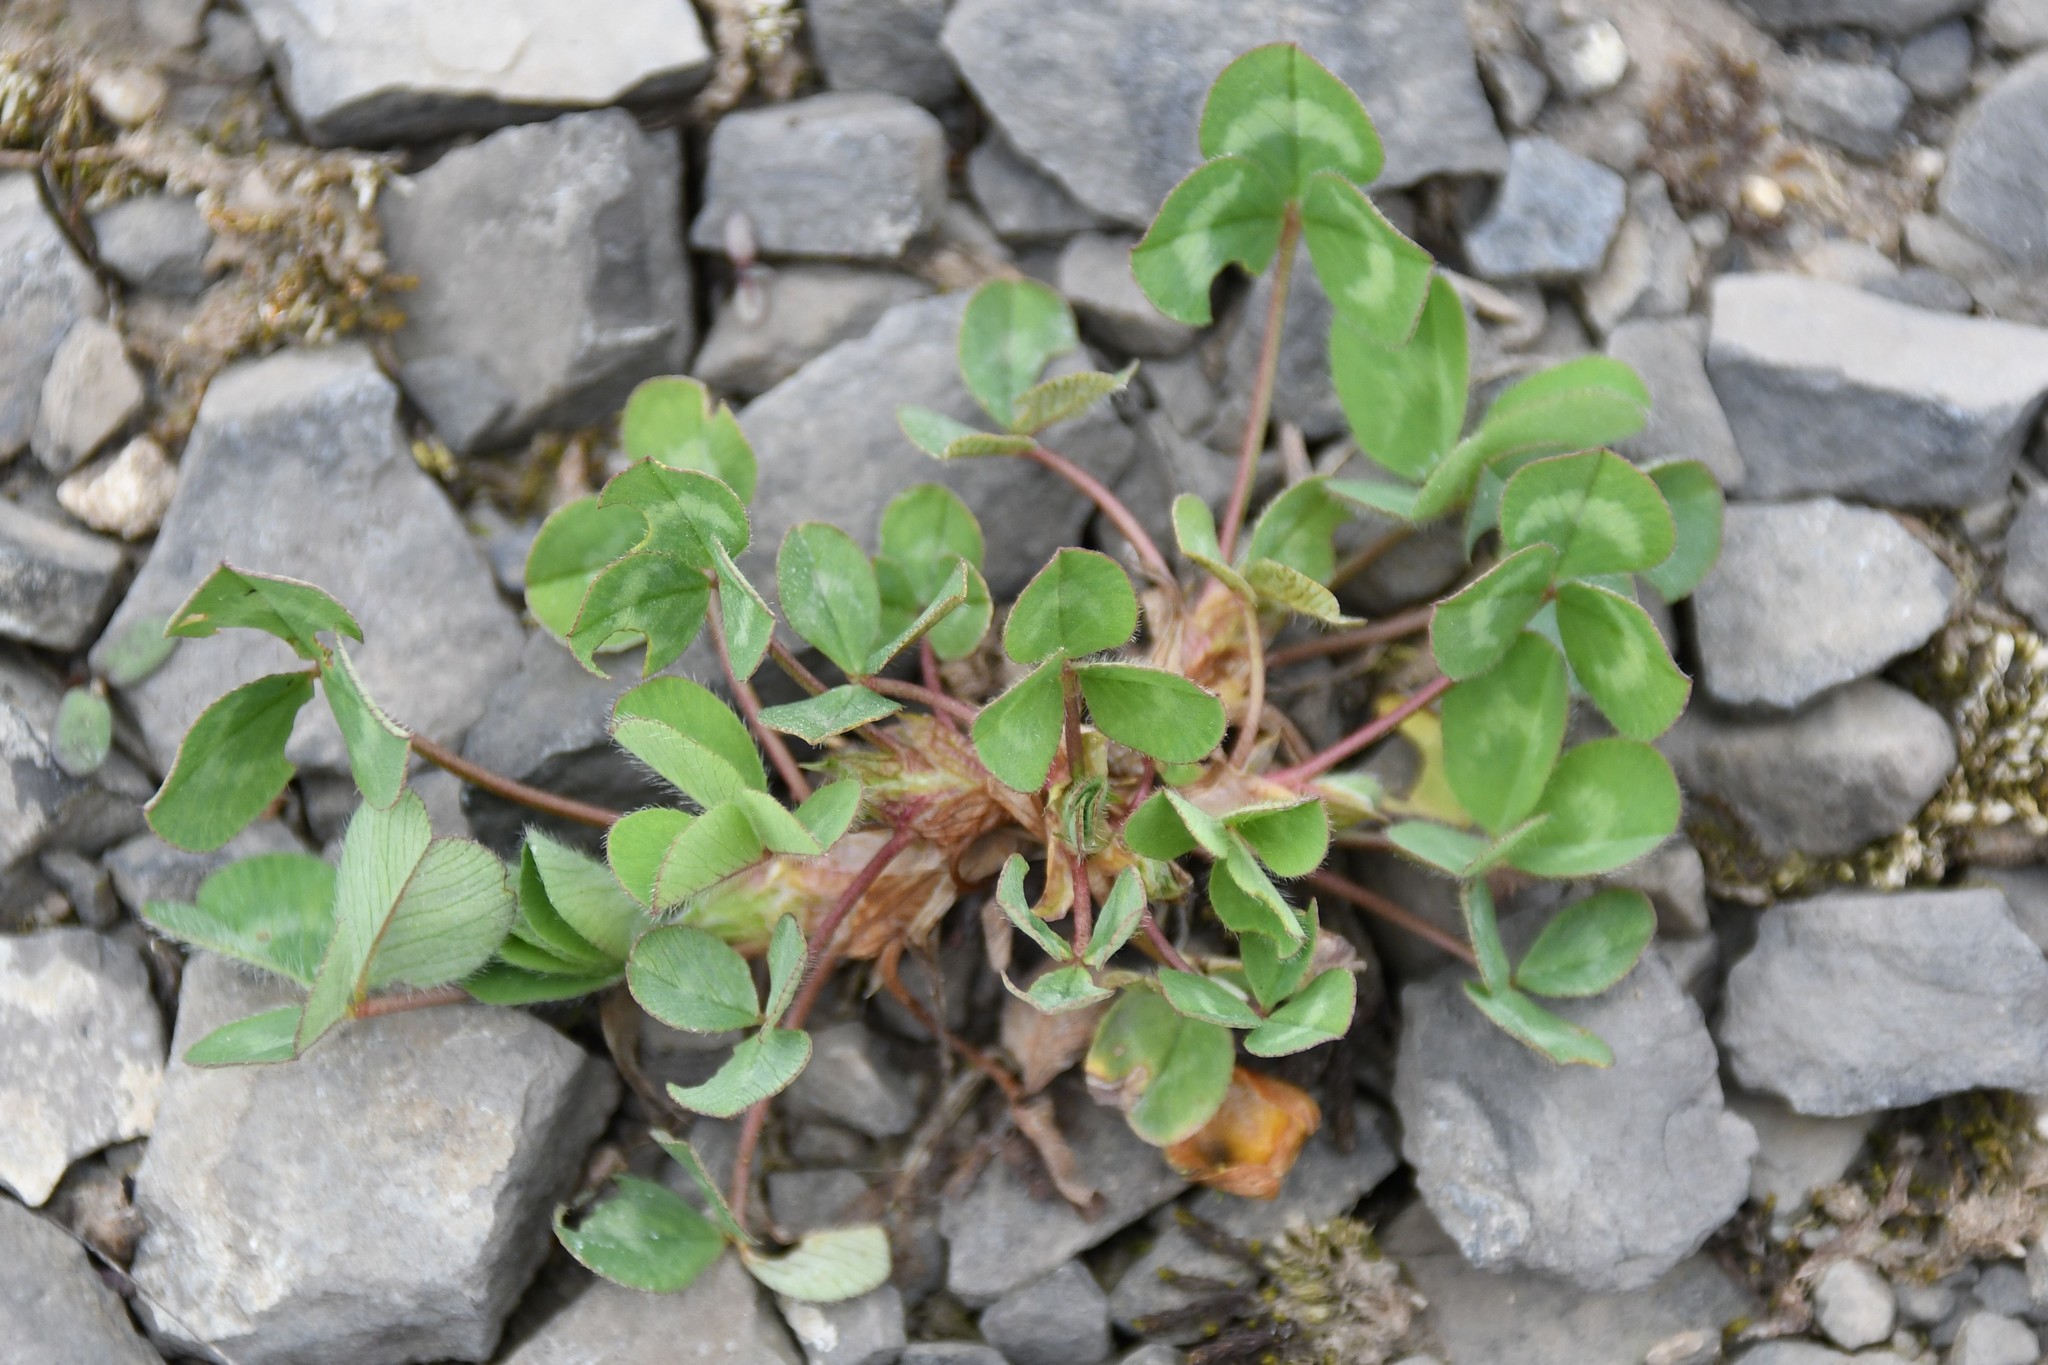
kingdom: Plantae
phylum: Tracheophyta
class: Magnoliopsida
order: Fabales
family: Fabaceae
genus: Trifolium
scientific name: Trifolium pratense
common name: Red clover
